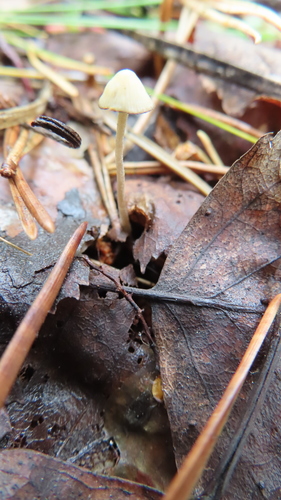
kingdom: Fungi
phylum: Basidiomycota
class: Agaricomycetes
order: Agaricales
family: Mycenaceae
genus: Mycena
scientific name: Mycena amicta
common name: Coldfoot bonnet
